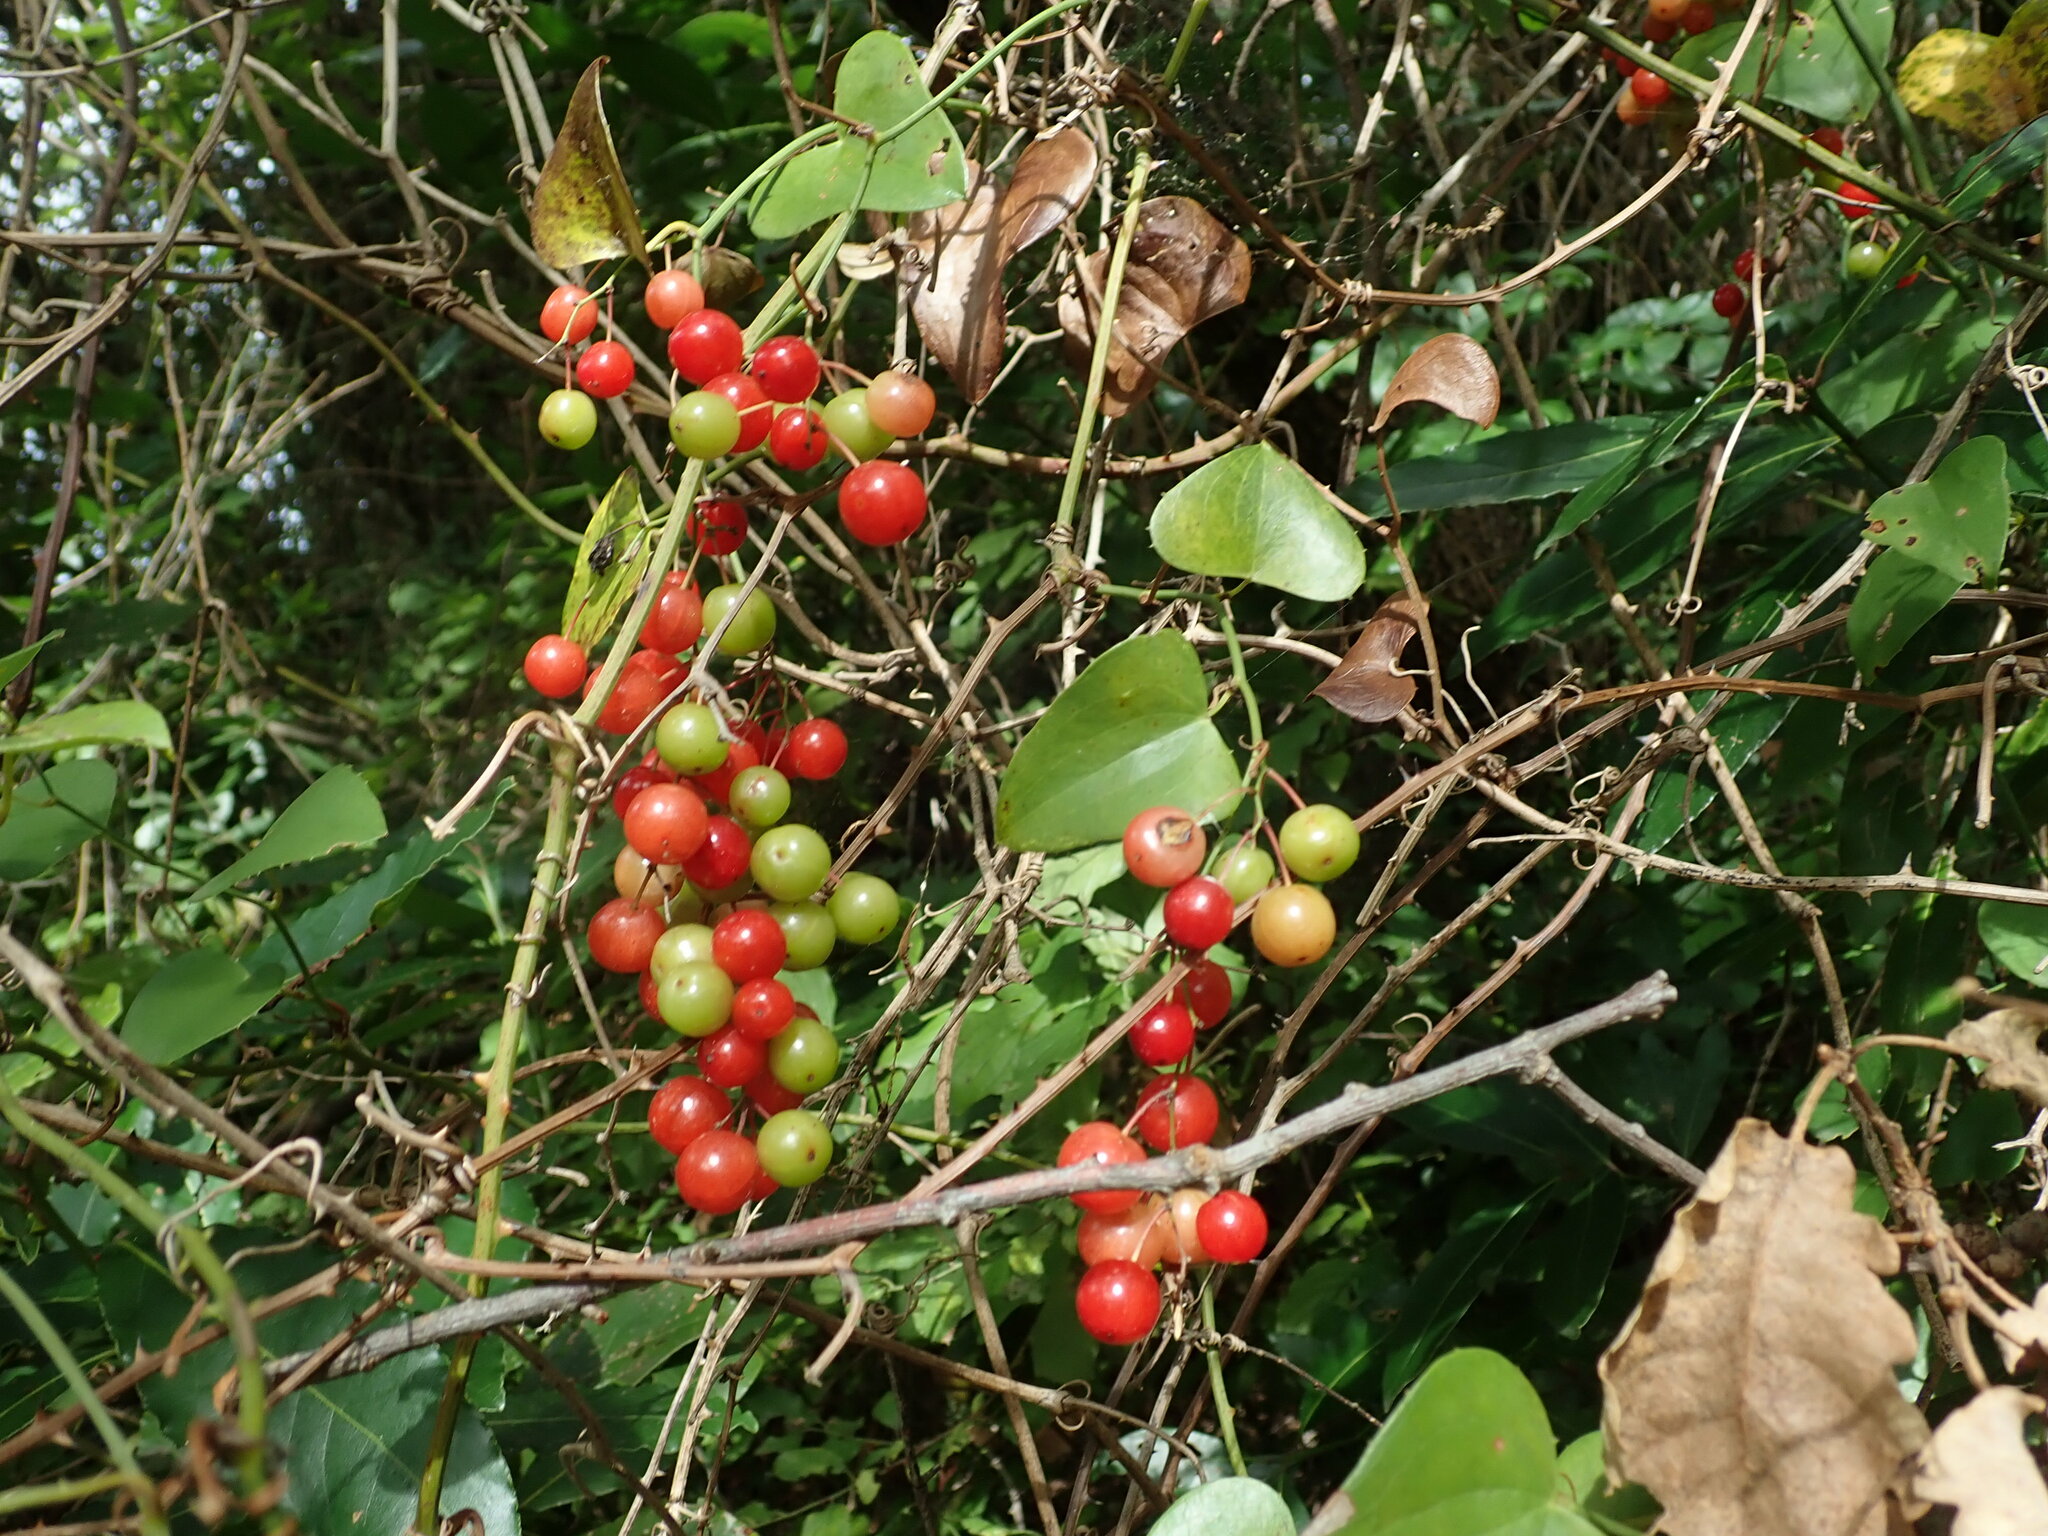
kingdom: Plantae
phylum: Tracheophyta
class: Liliopsida
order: Liliales
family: Smilacaceae
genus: Smilax
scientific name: Smilax aspera
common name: Common smilax
